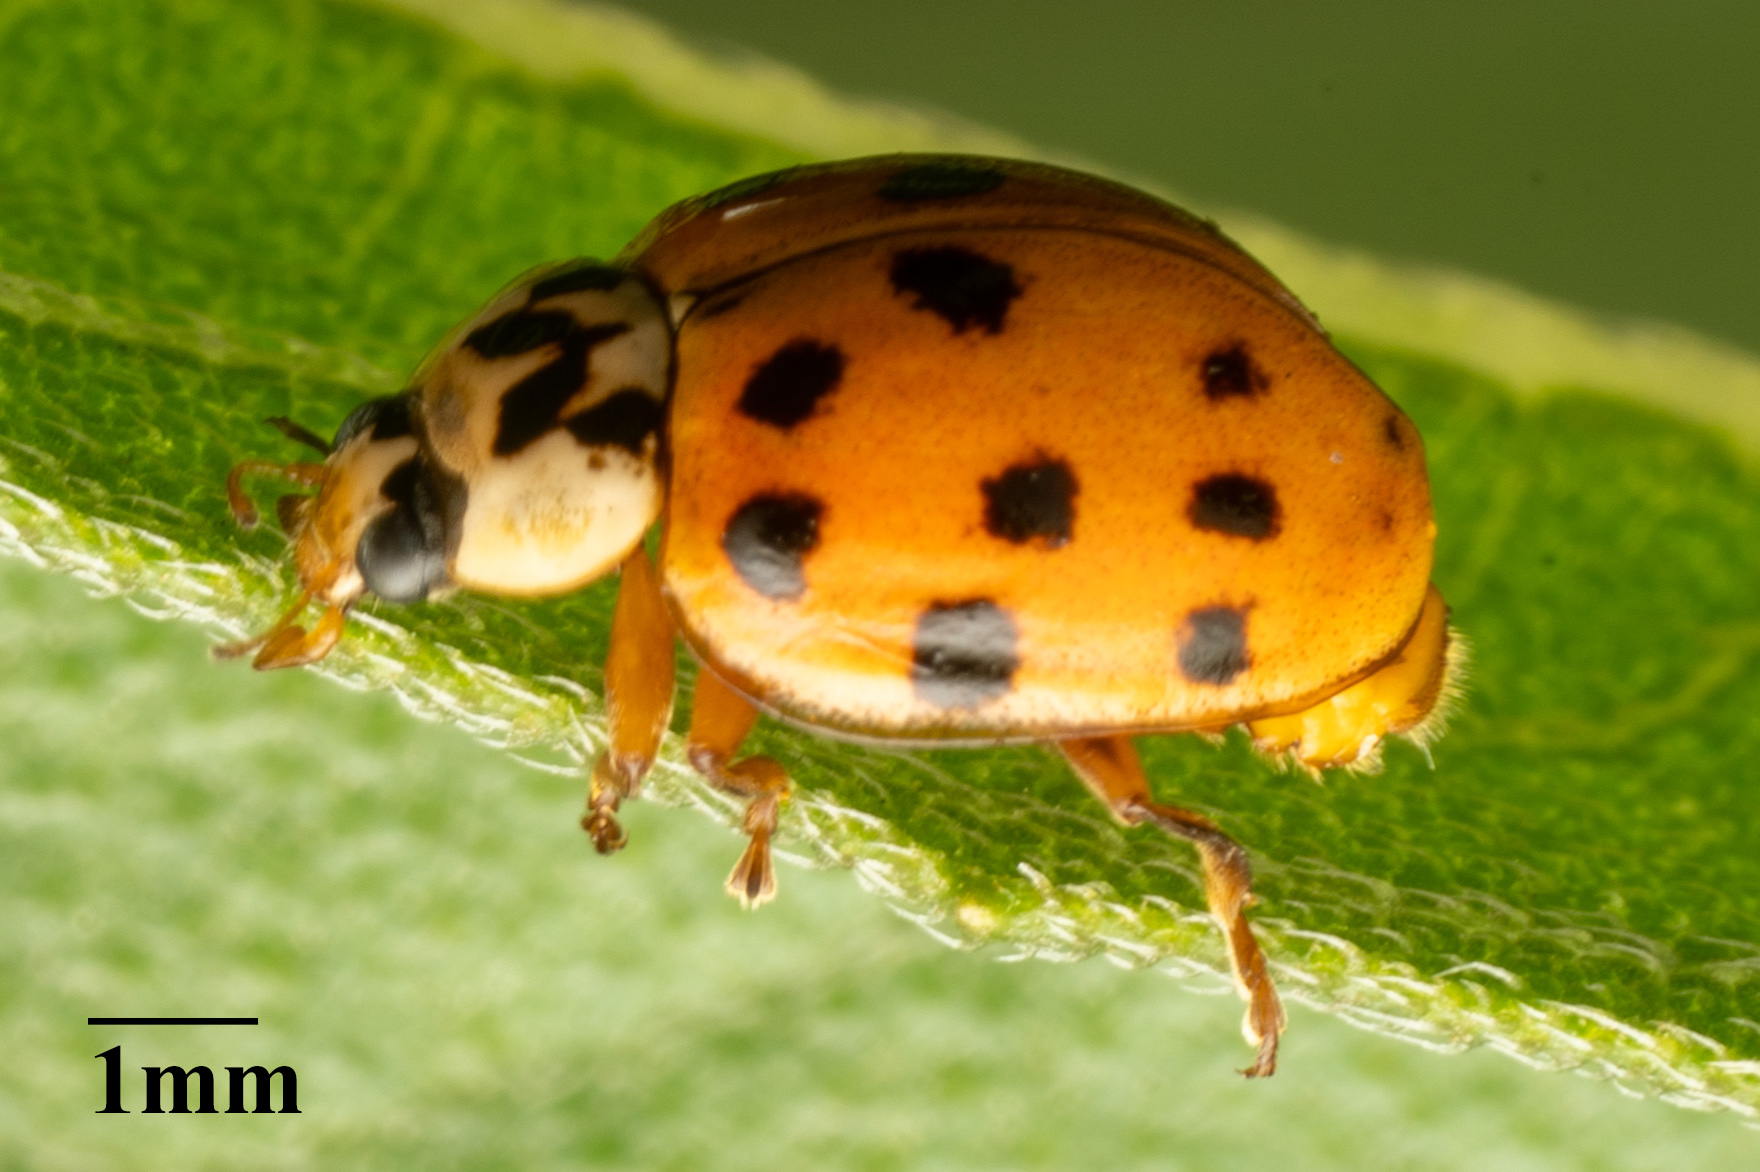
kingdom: Animalia
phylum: Arthropoda
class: Insecta
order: Coleoptera
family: Coccinellidae
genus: Harmonia
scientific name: Harmonia axyridis
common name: Harlequin ladybird
